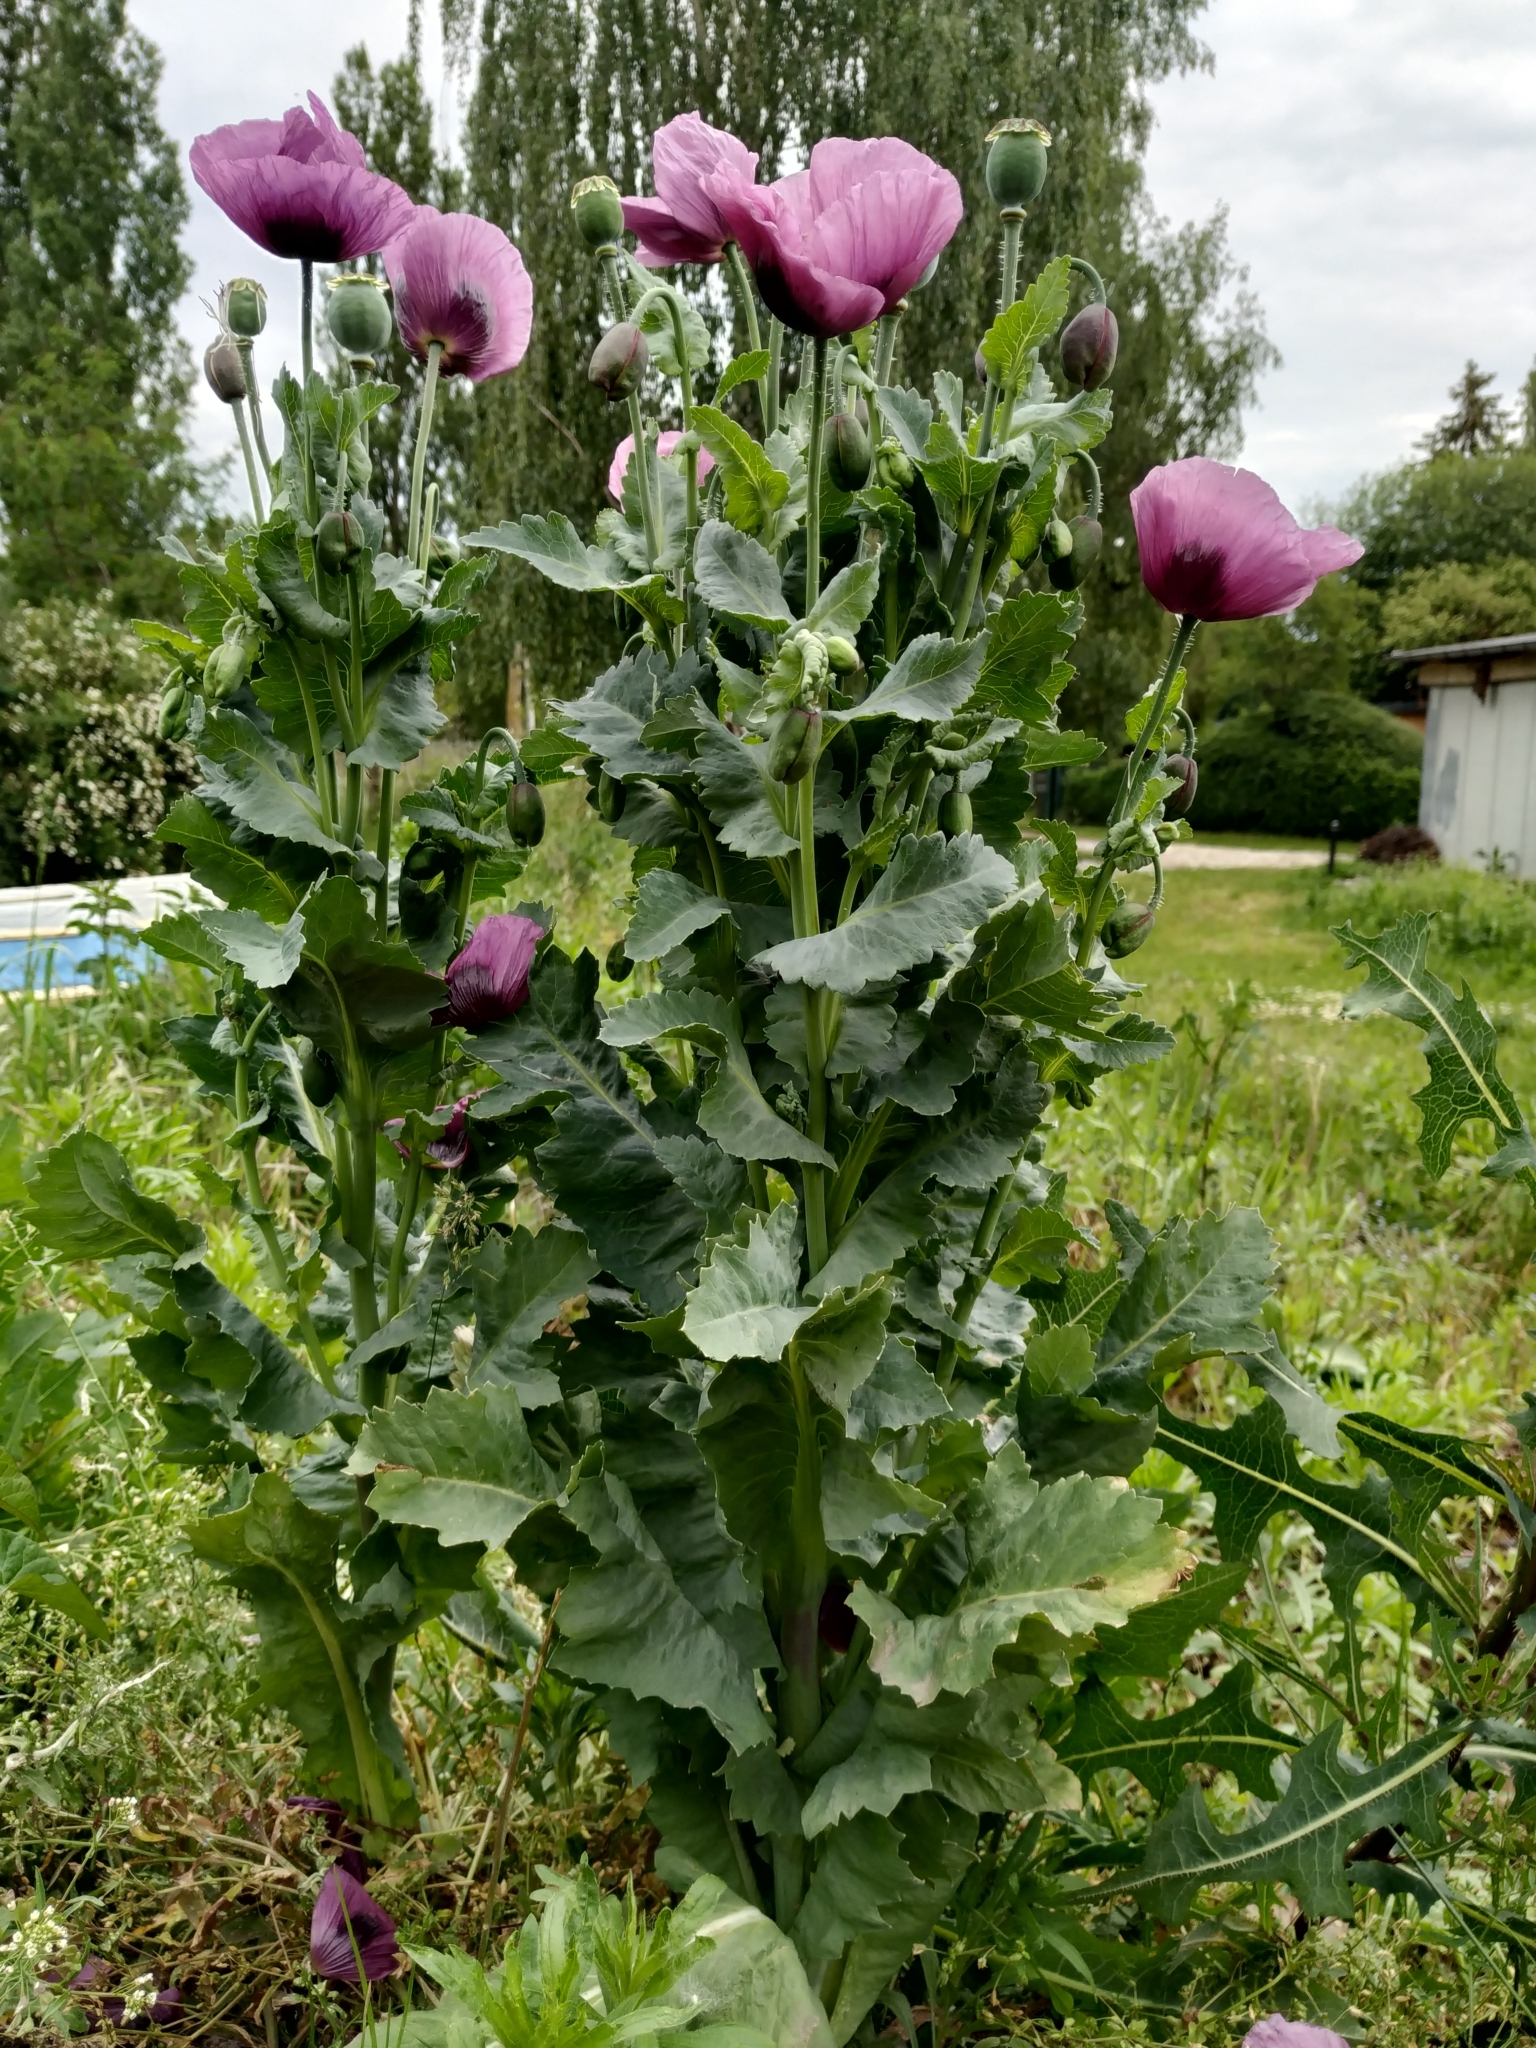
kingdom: Plantae
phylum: Tracheophyta
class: Magnoliopsida
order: Ranunculales
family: Papaveraceae
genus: Papaver
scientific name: Papaver somniferum
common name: Opium poppy
